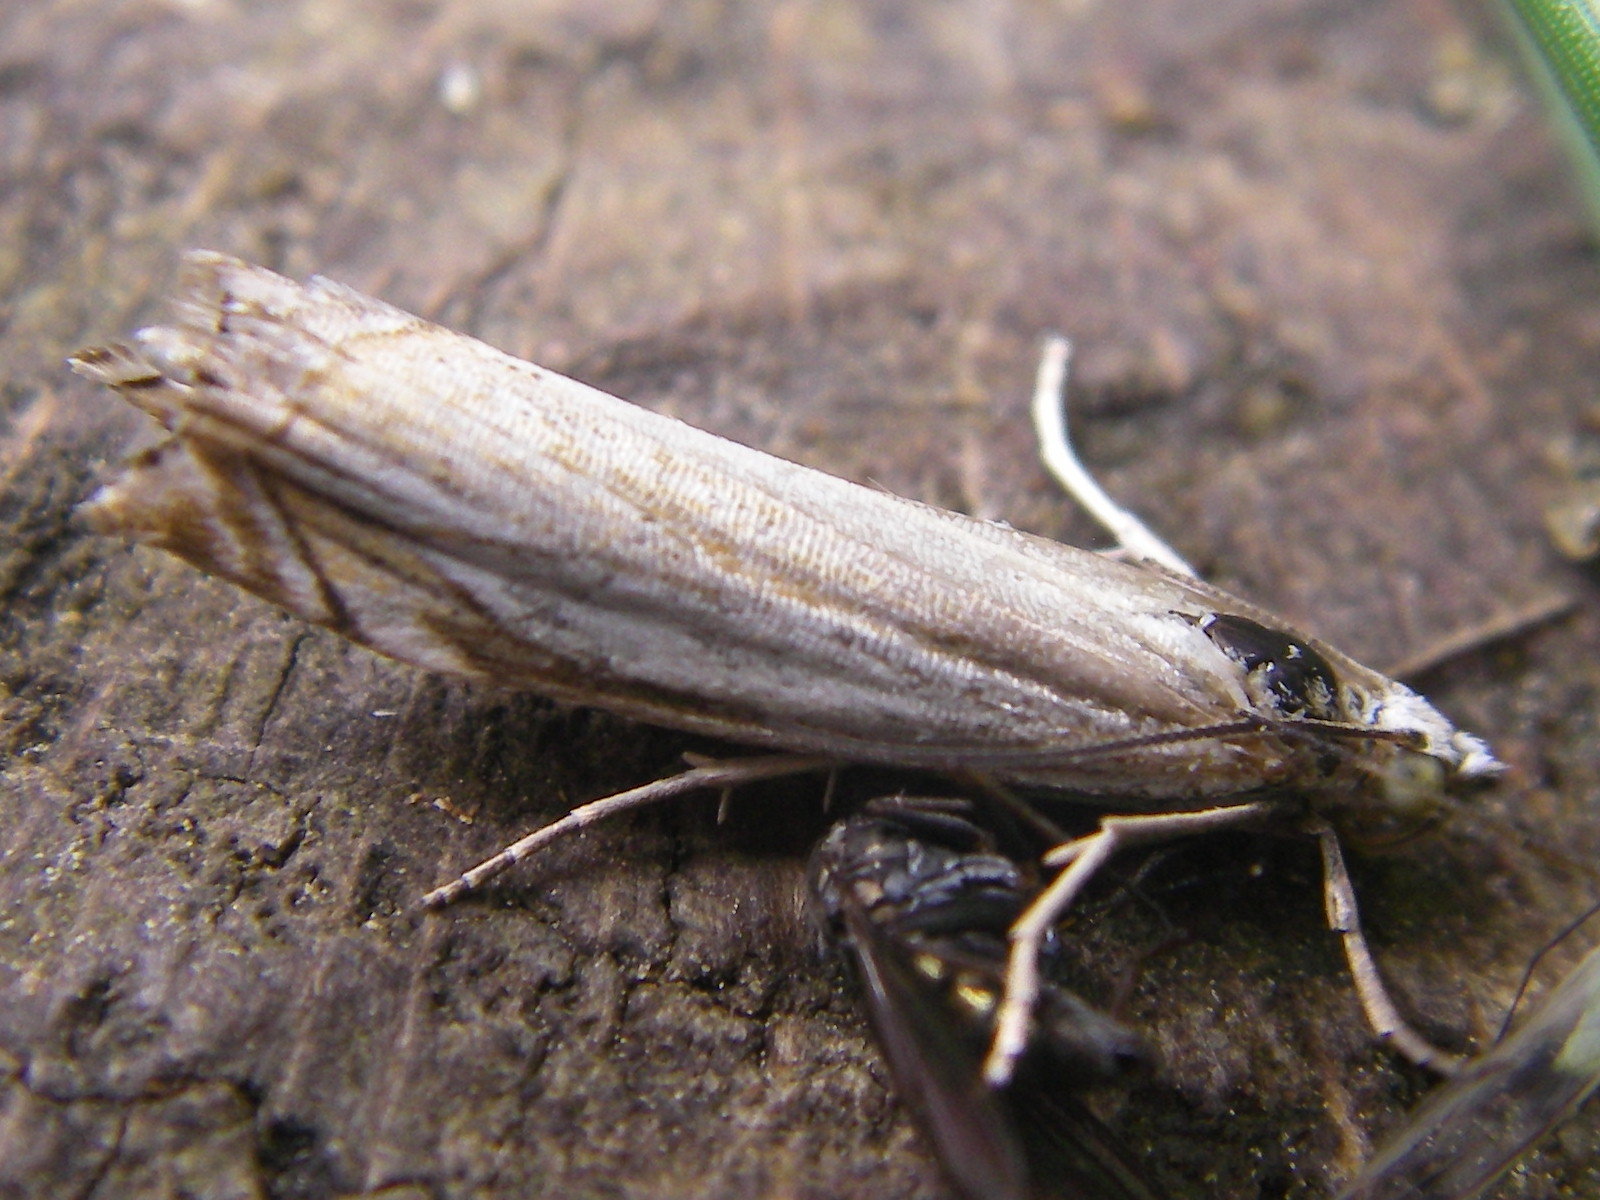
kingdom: Animalia
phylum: Arthropoda
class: Insecta
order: Lepidoptera
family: Crambidae
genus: Crambus
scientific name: Crambus pascuella
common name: Inlaid grass-veneer
